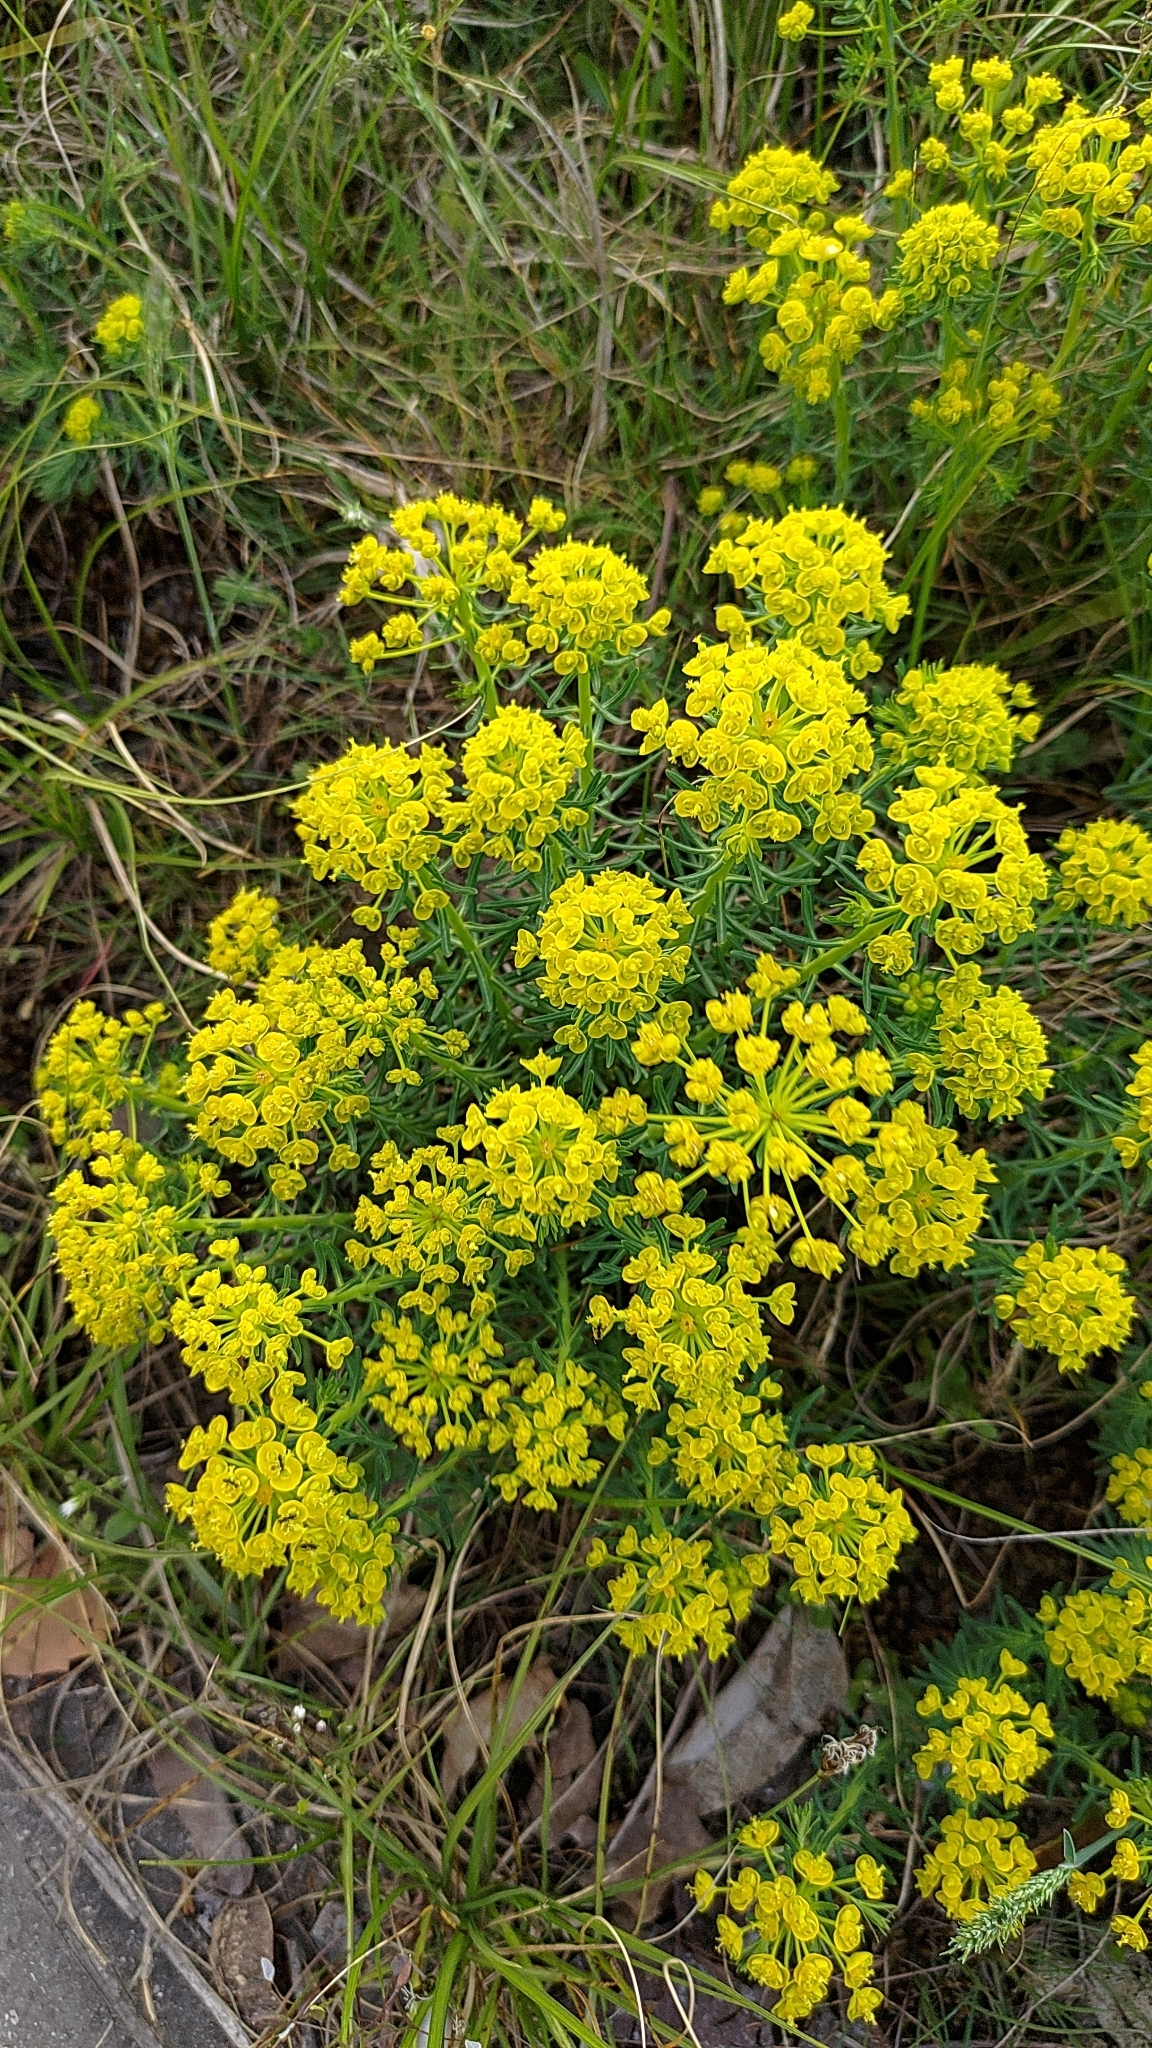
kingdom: Plantae
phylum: Tracheophyta
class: Magnoliopsida
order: Malpighiales
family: Euphorbiaceae
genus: Euphorbia
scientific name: Euphorbia cyparissias
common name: Cypress spurge
